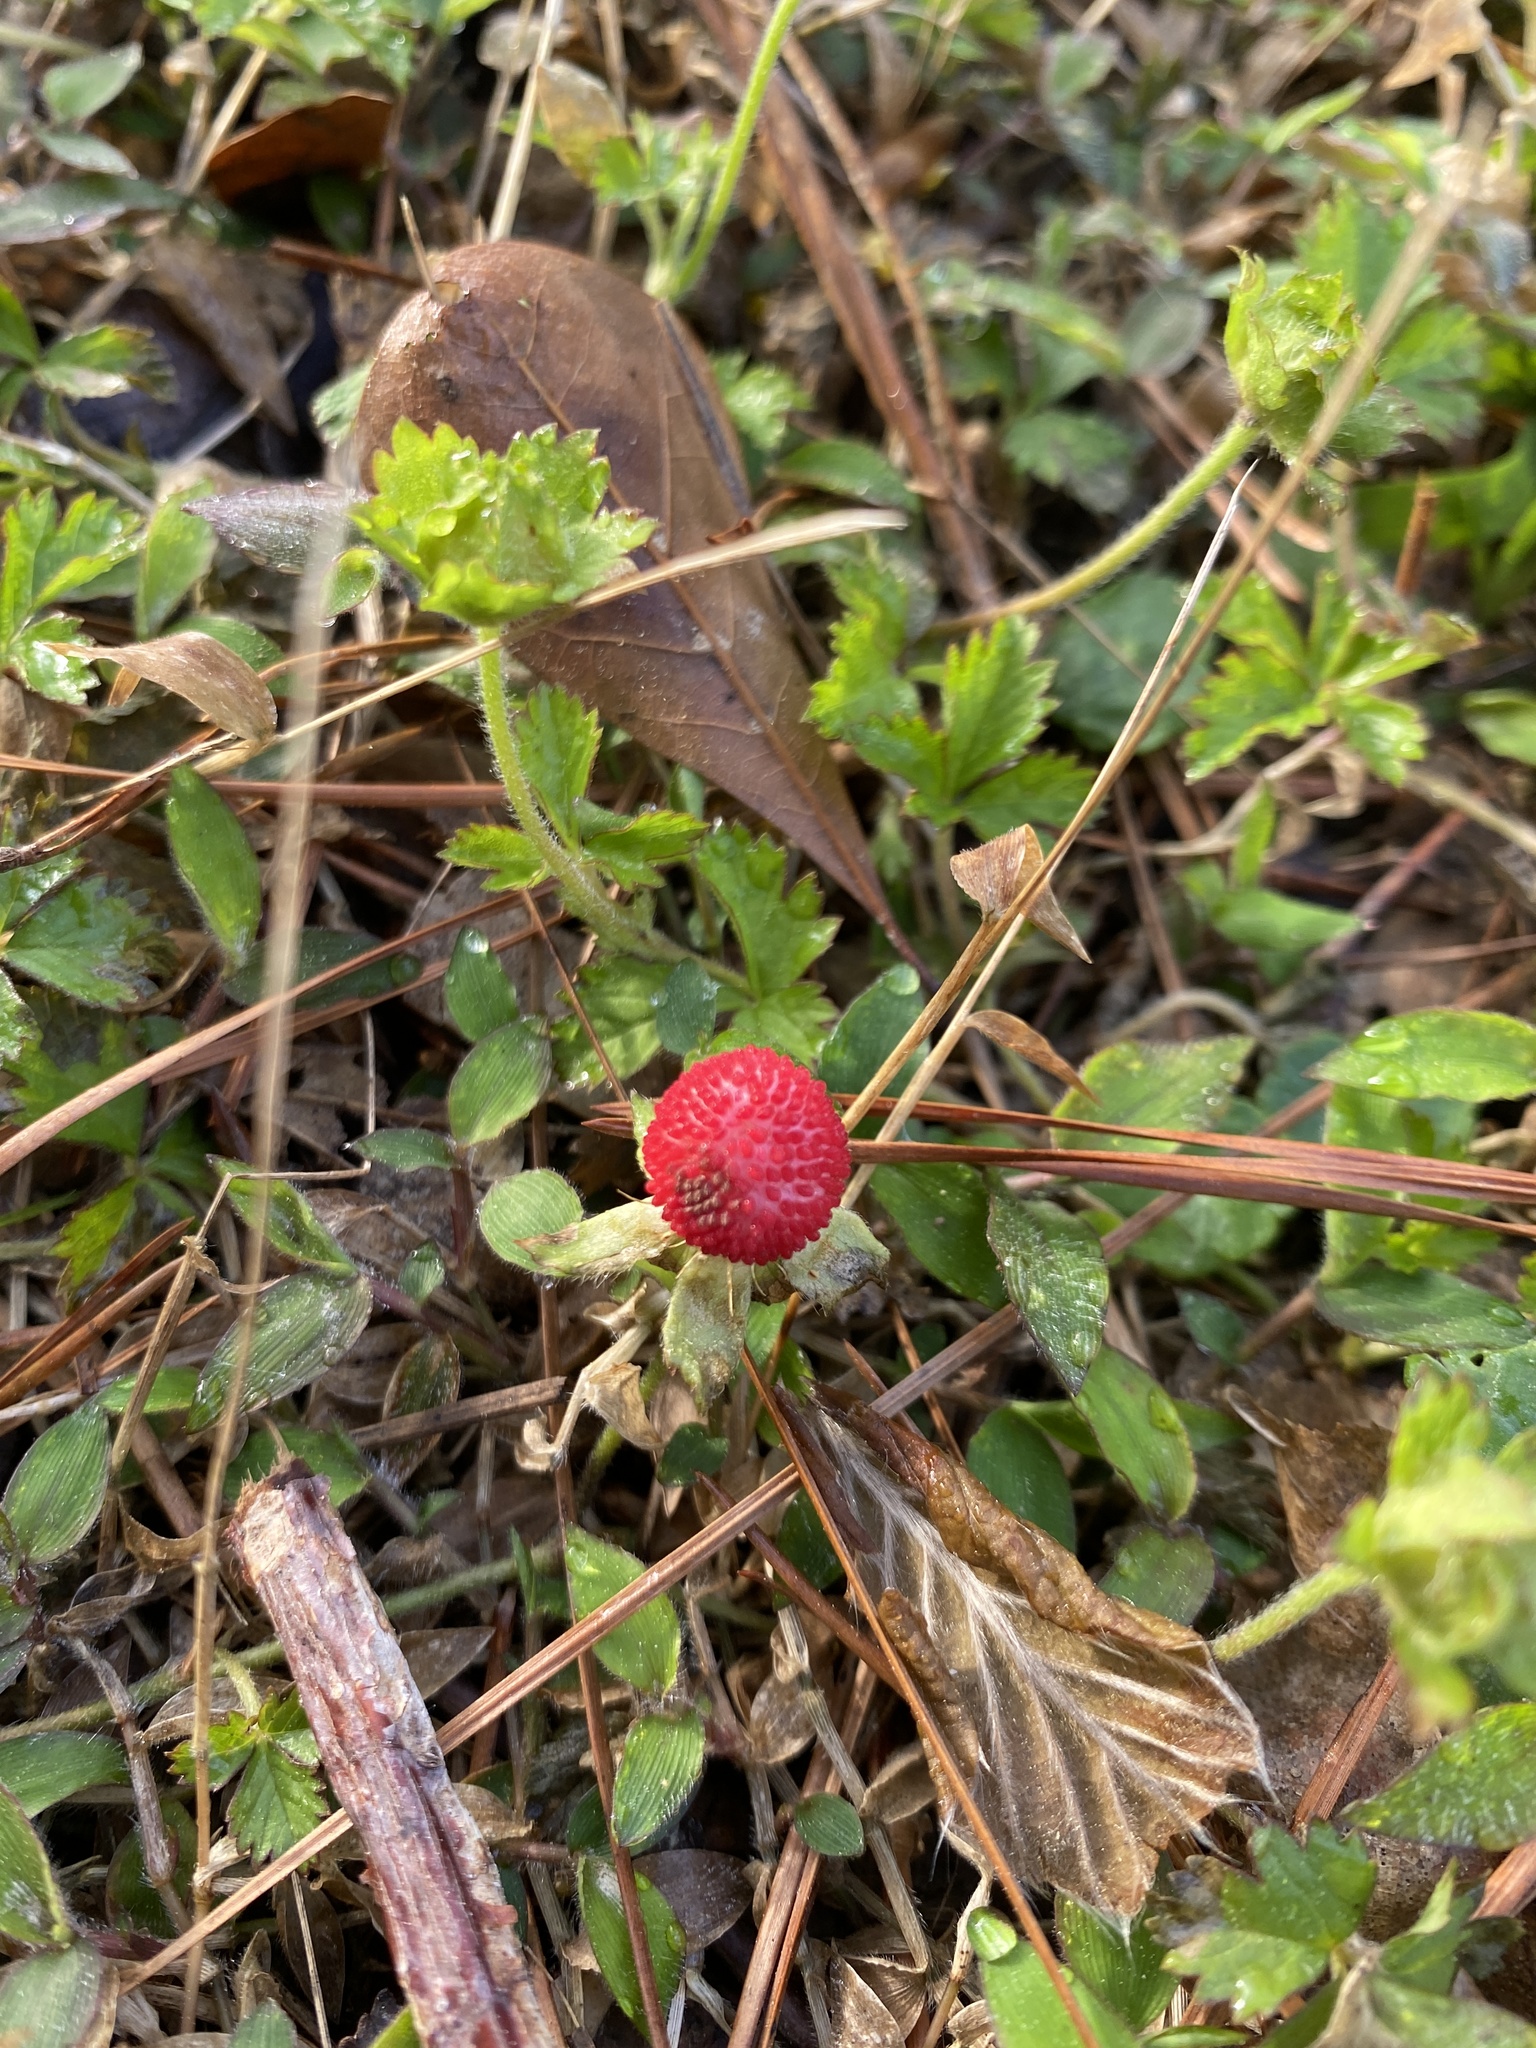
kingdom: Plantae
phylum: Tracheophyta
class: Magnoliopsida
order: Rosales
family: Rosaceae
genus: Potentilla
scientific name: Potentilla indica
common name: Yellow-flowered strawberry
